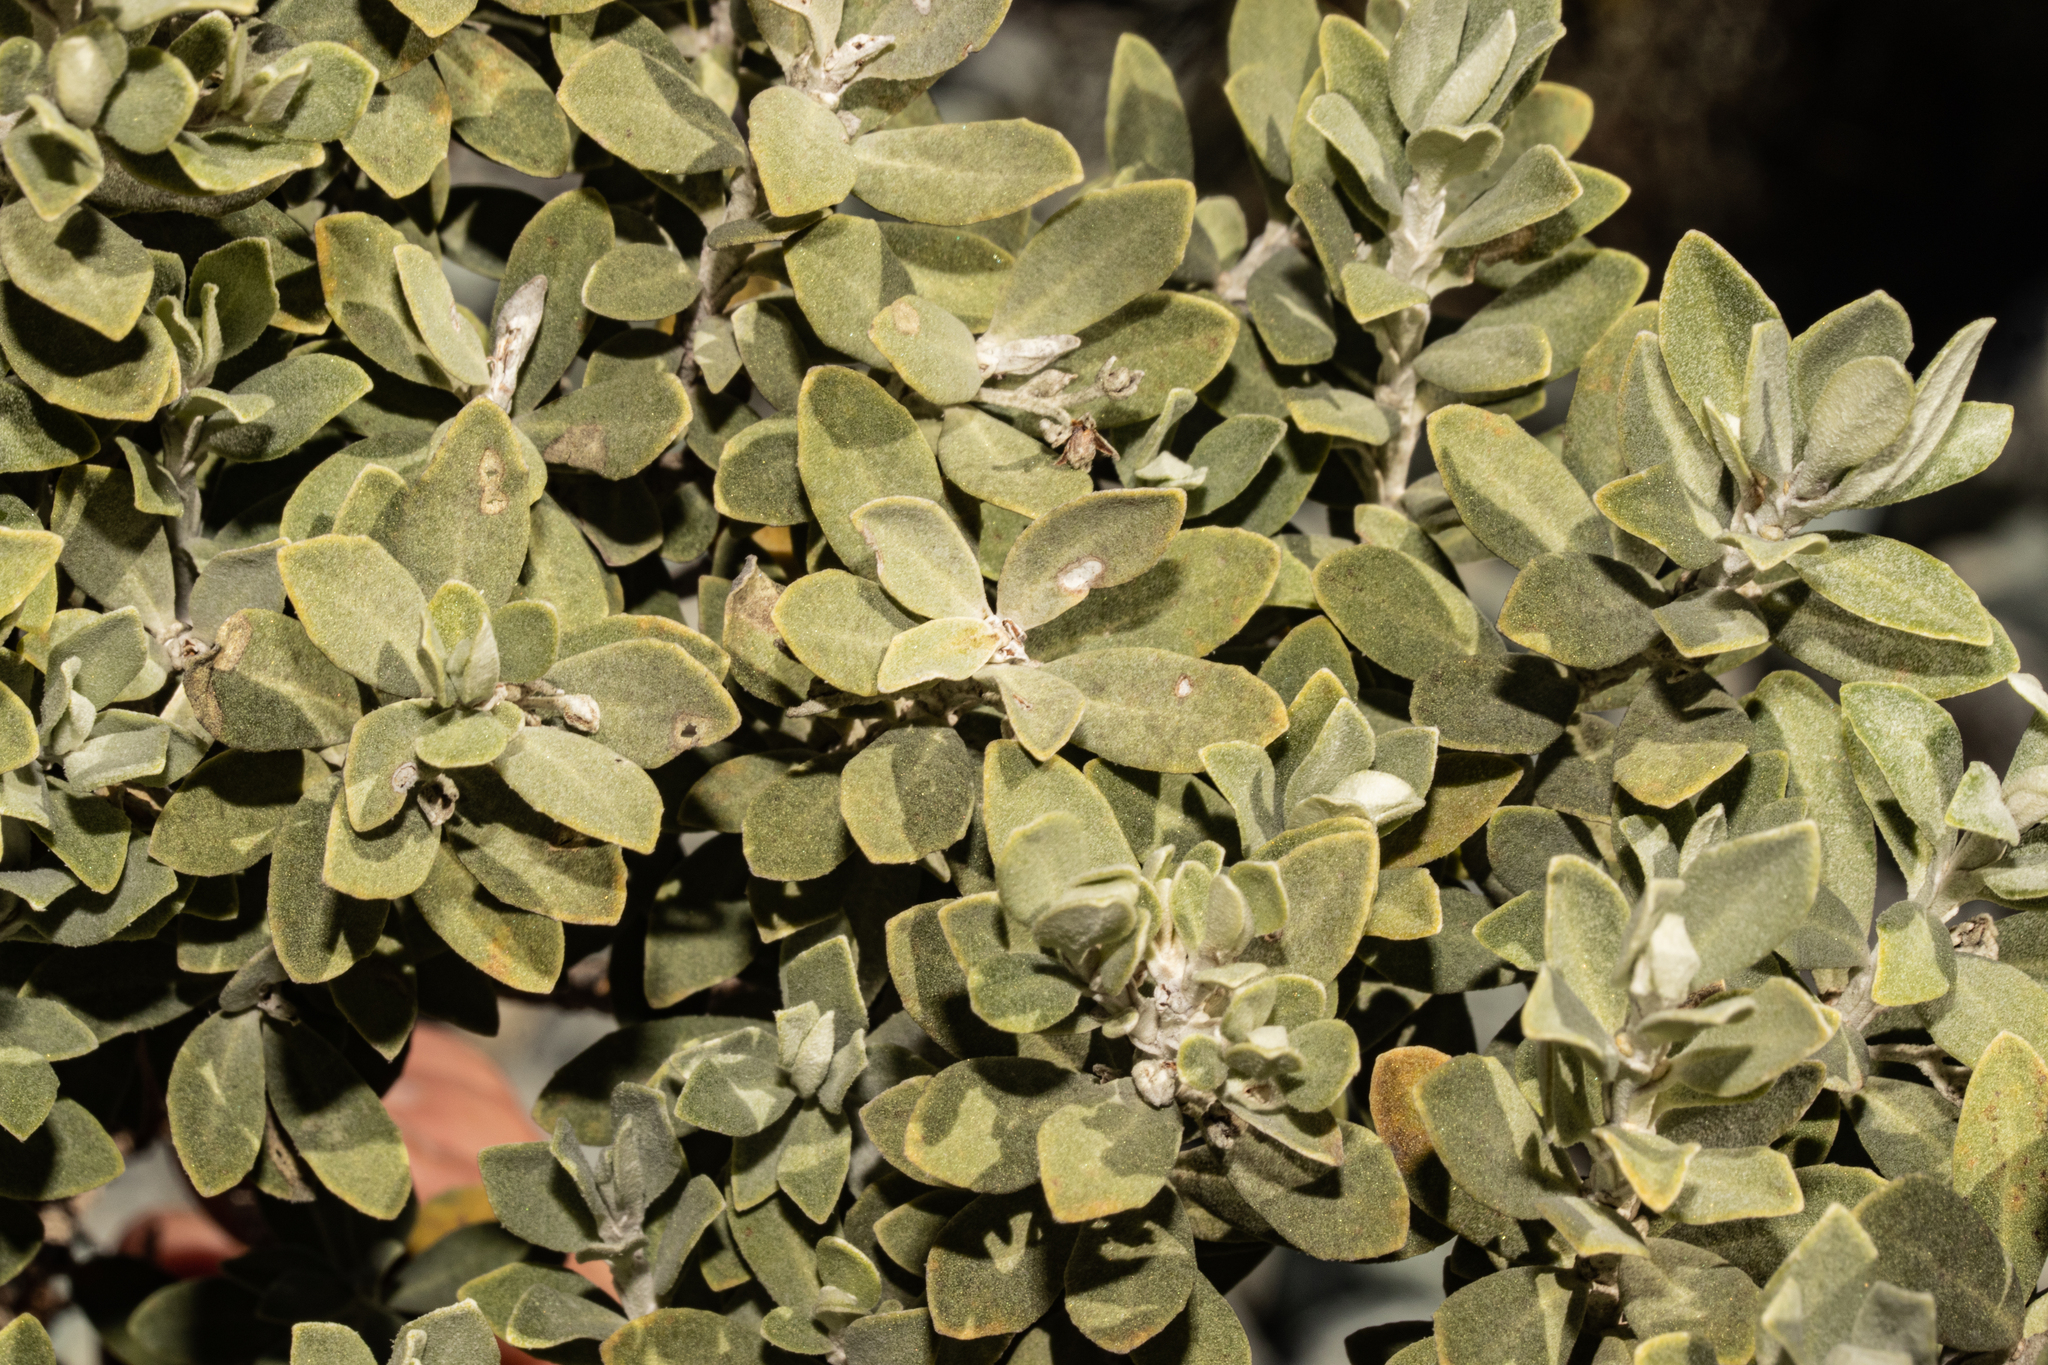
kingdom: Plantae
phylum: Tracheophyta
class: Magnoliopsida
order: Asterales
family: Asteraceae
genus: Olearia
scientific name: Olearia moschata
